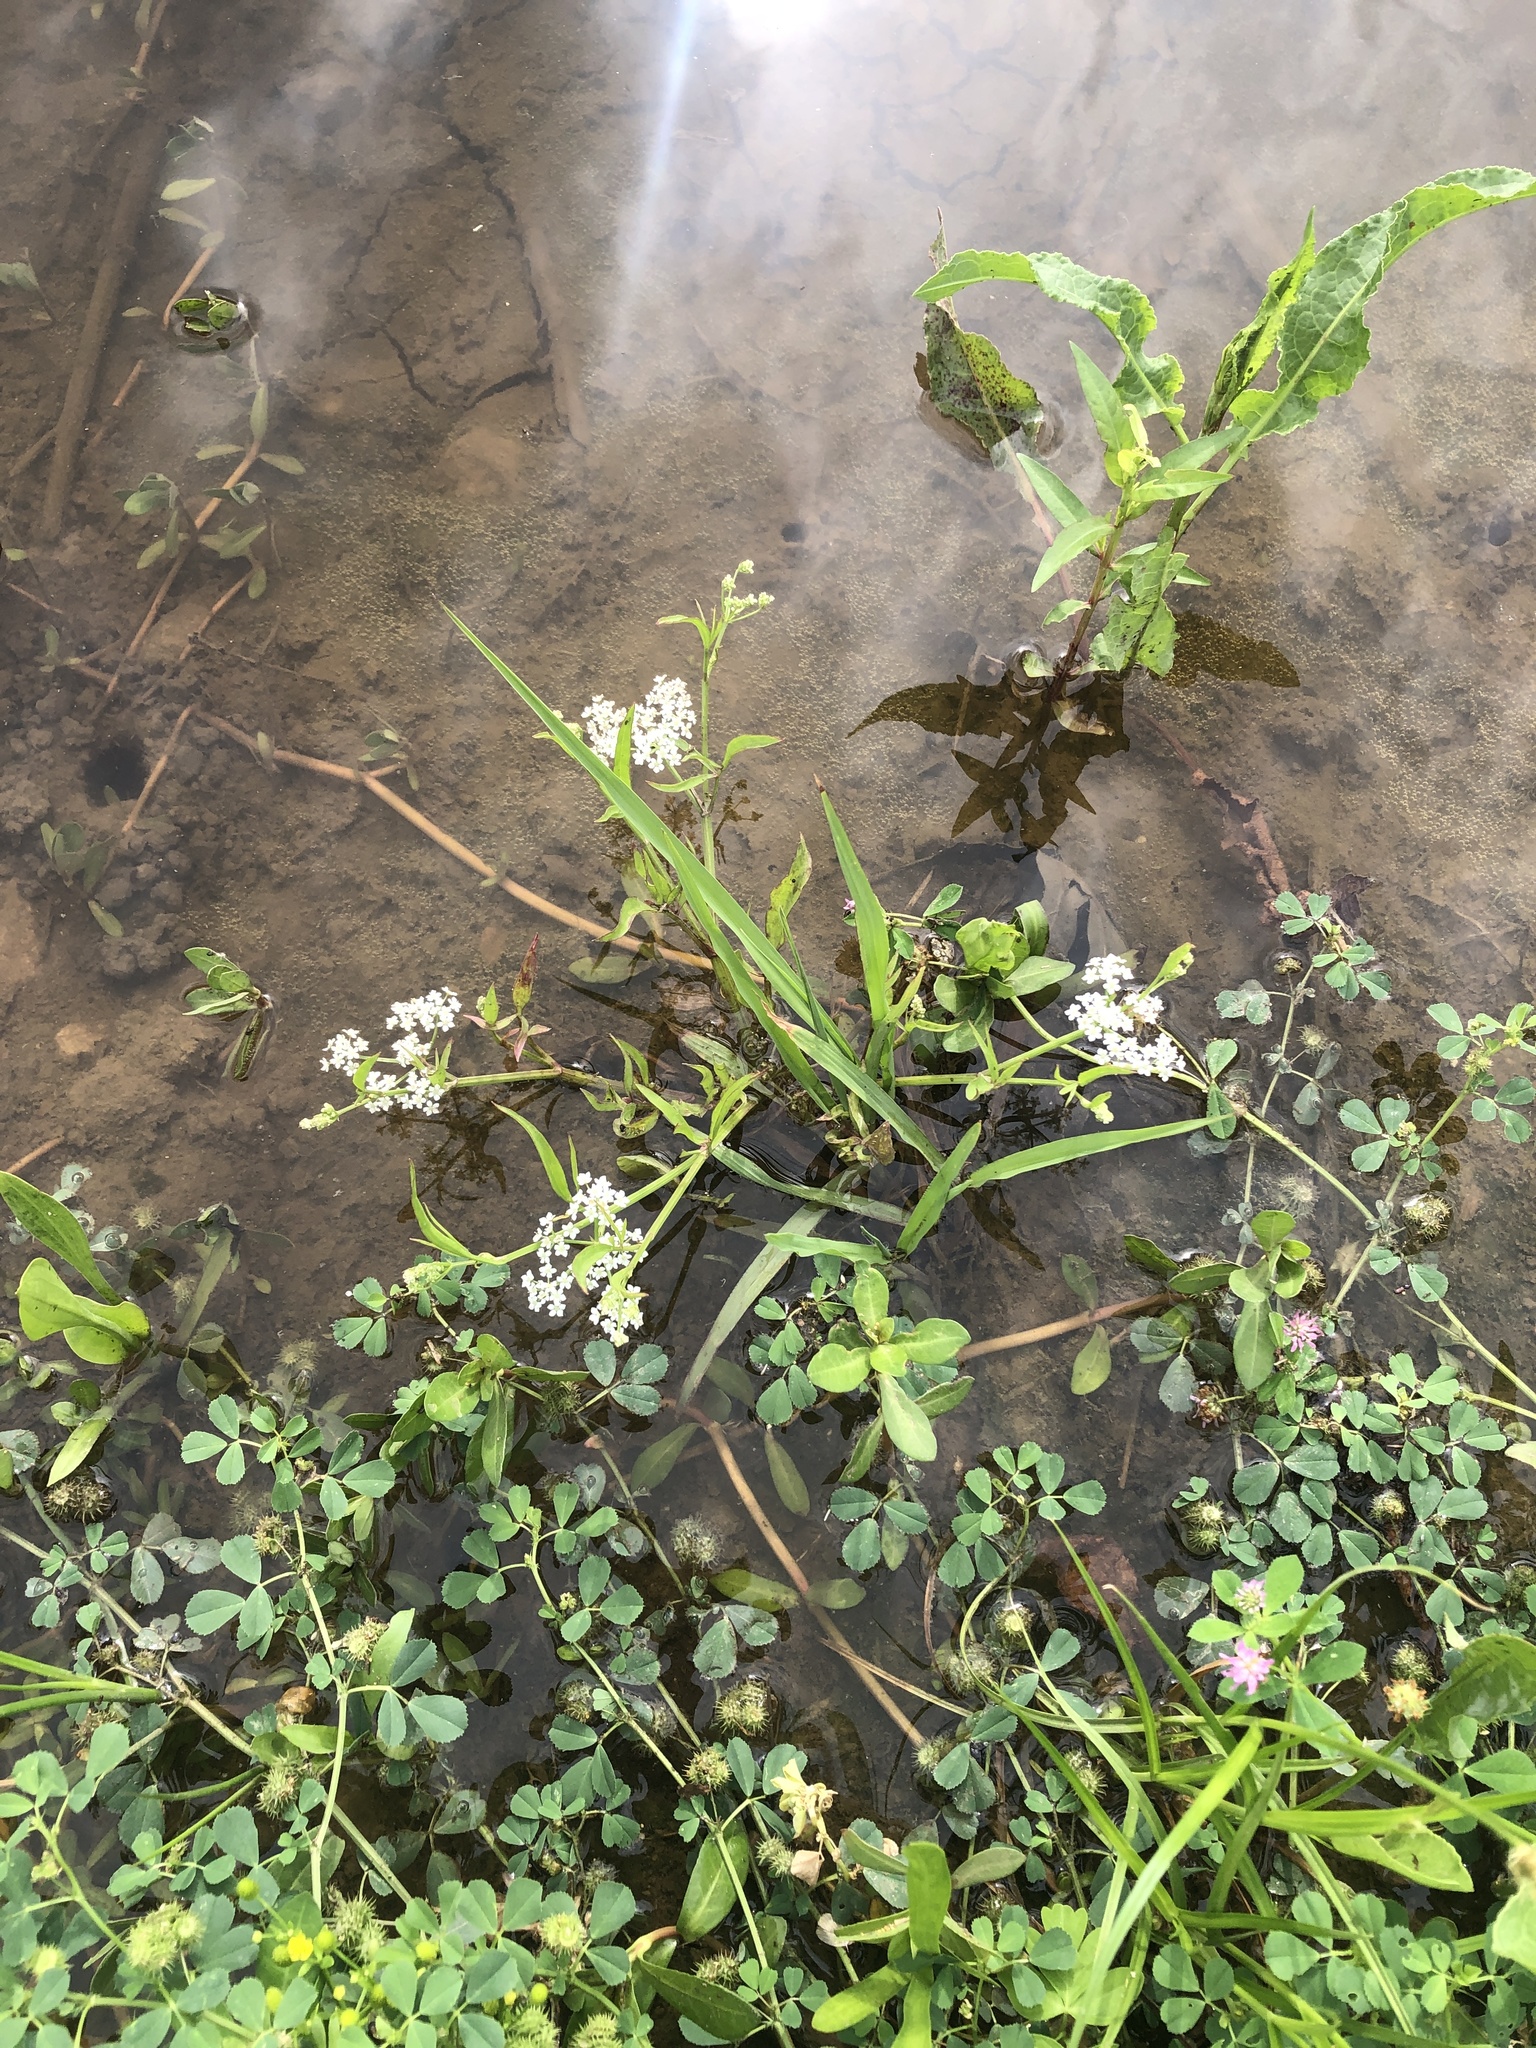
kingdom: Plantae
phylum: Tracheophyta
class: Magnoliopsida
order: Apiales
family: Apiaceae
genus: Limnosciadium
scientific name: Limnosciadium pinnatum
